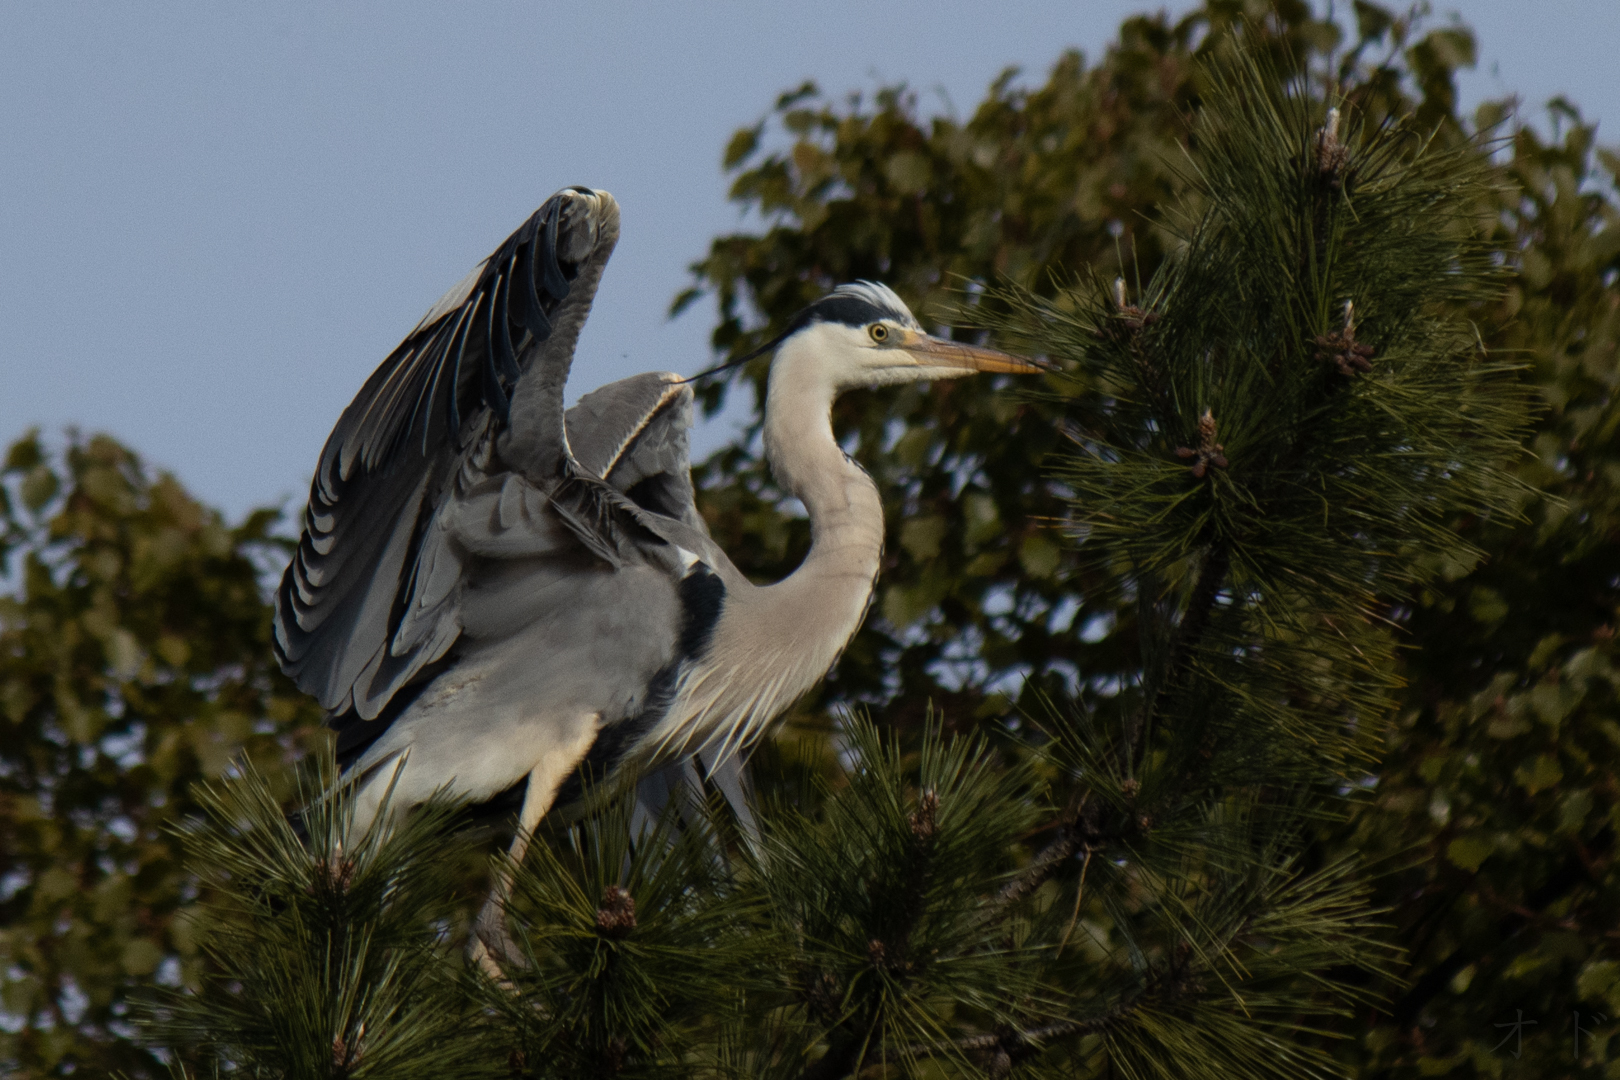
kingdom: Animalia
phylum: Chordata
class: Aves
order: Pelecaniformes
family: Ardeidae
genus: Ardea
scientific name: Ardea cinerea
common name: Grey heron
